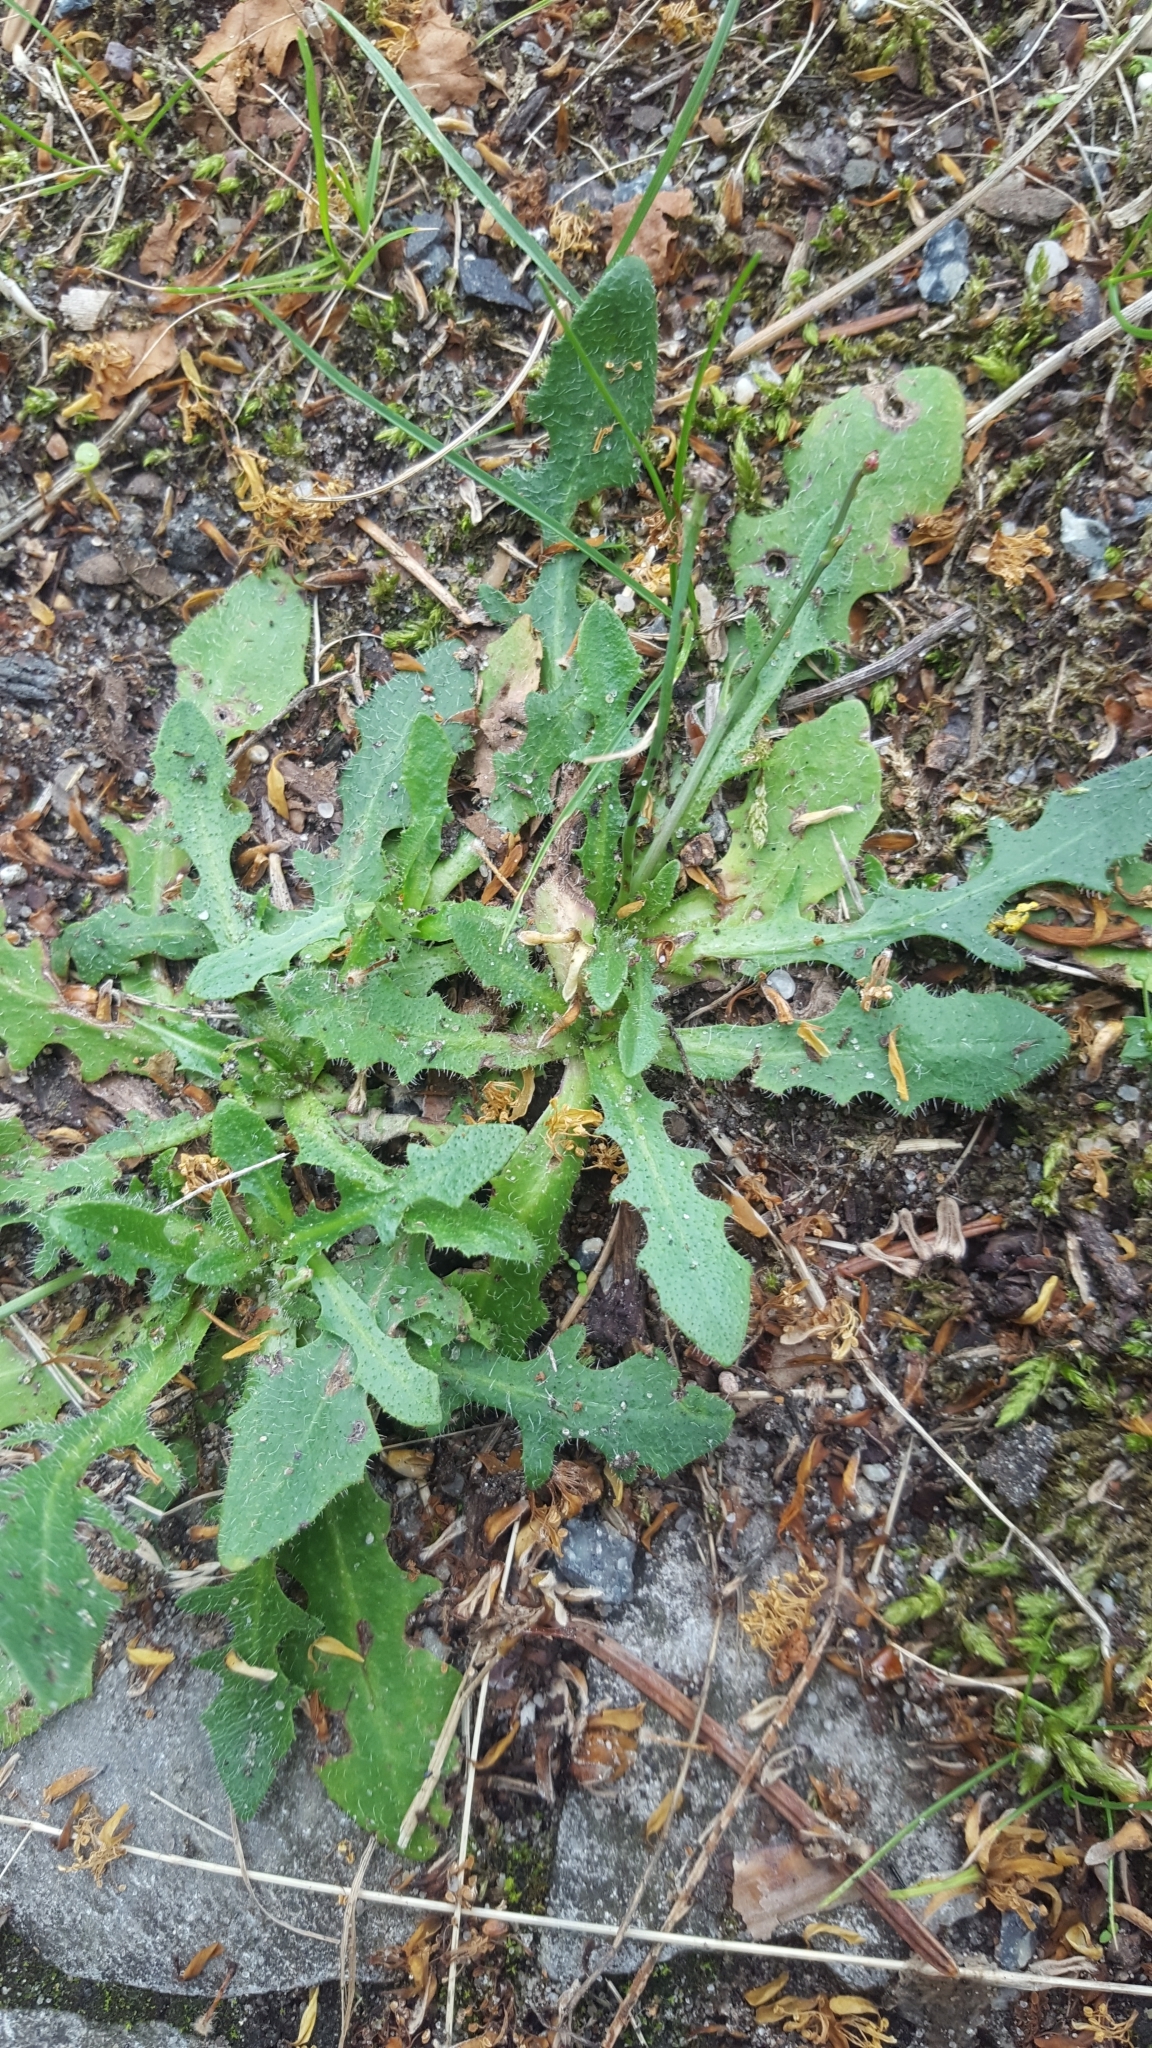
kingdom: Plantae
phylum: Tracheophyta
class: Magnoliopsida
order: Asterales
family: Asteraceae
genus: Hypochaeris
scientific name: Hypochaeris radicata
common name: Flatweed
